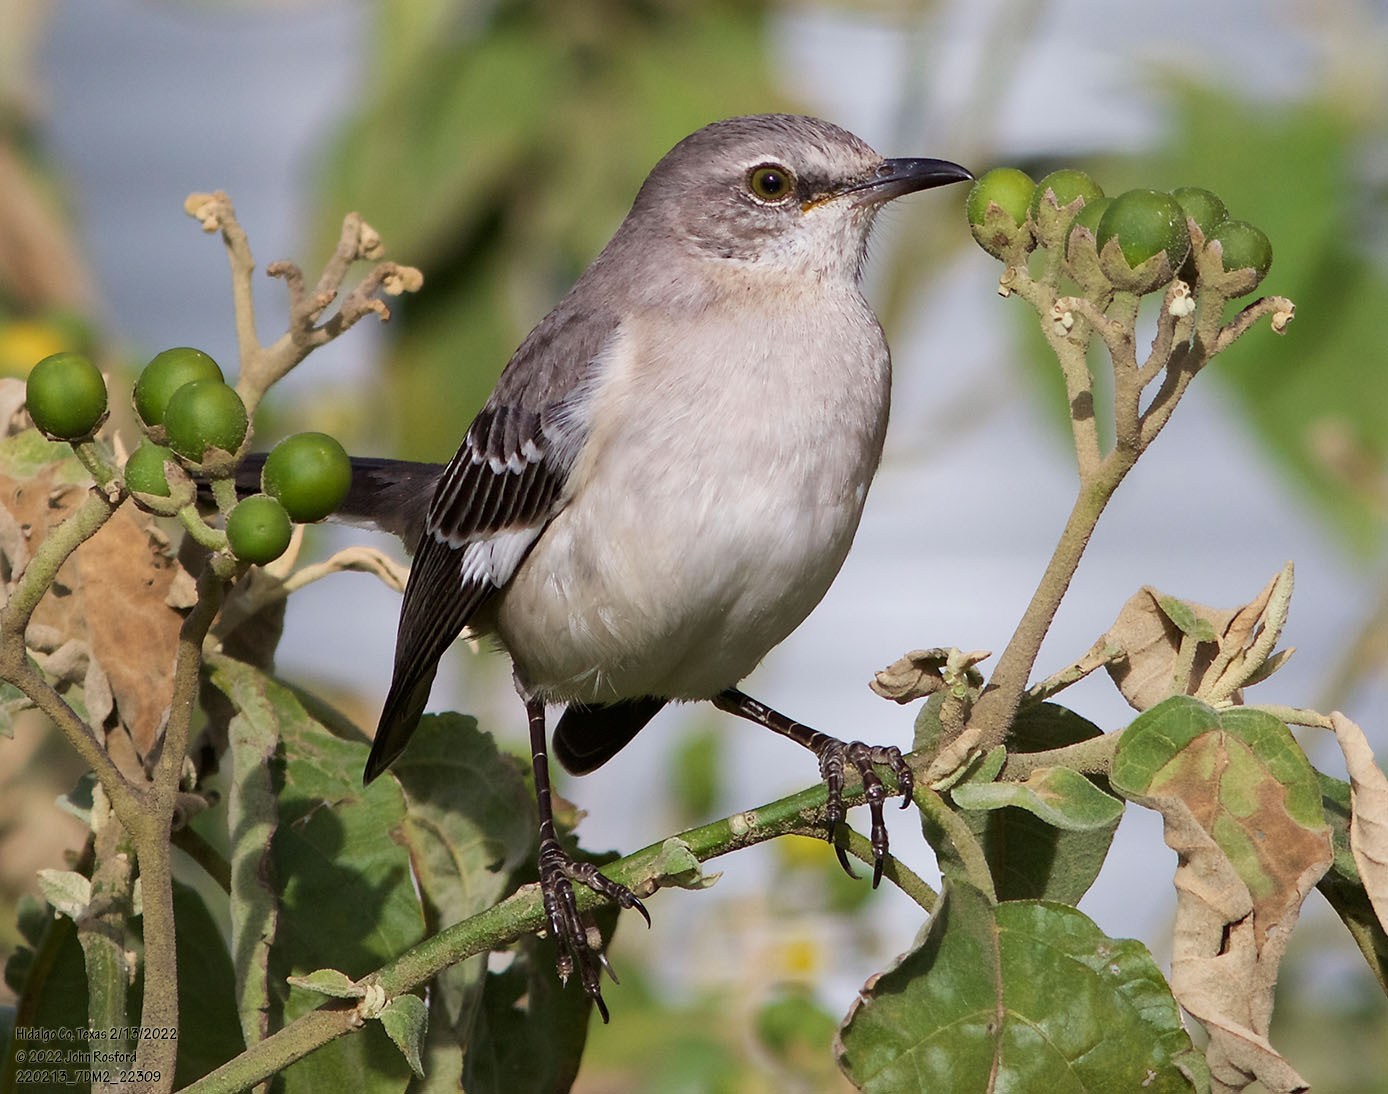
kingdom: Animalia
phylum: Chordata
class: Aves
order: Passeriformes
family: Mimidae
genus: Mimus
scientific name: Mimus polyglottos
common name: Northern mockingbird
